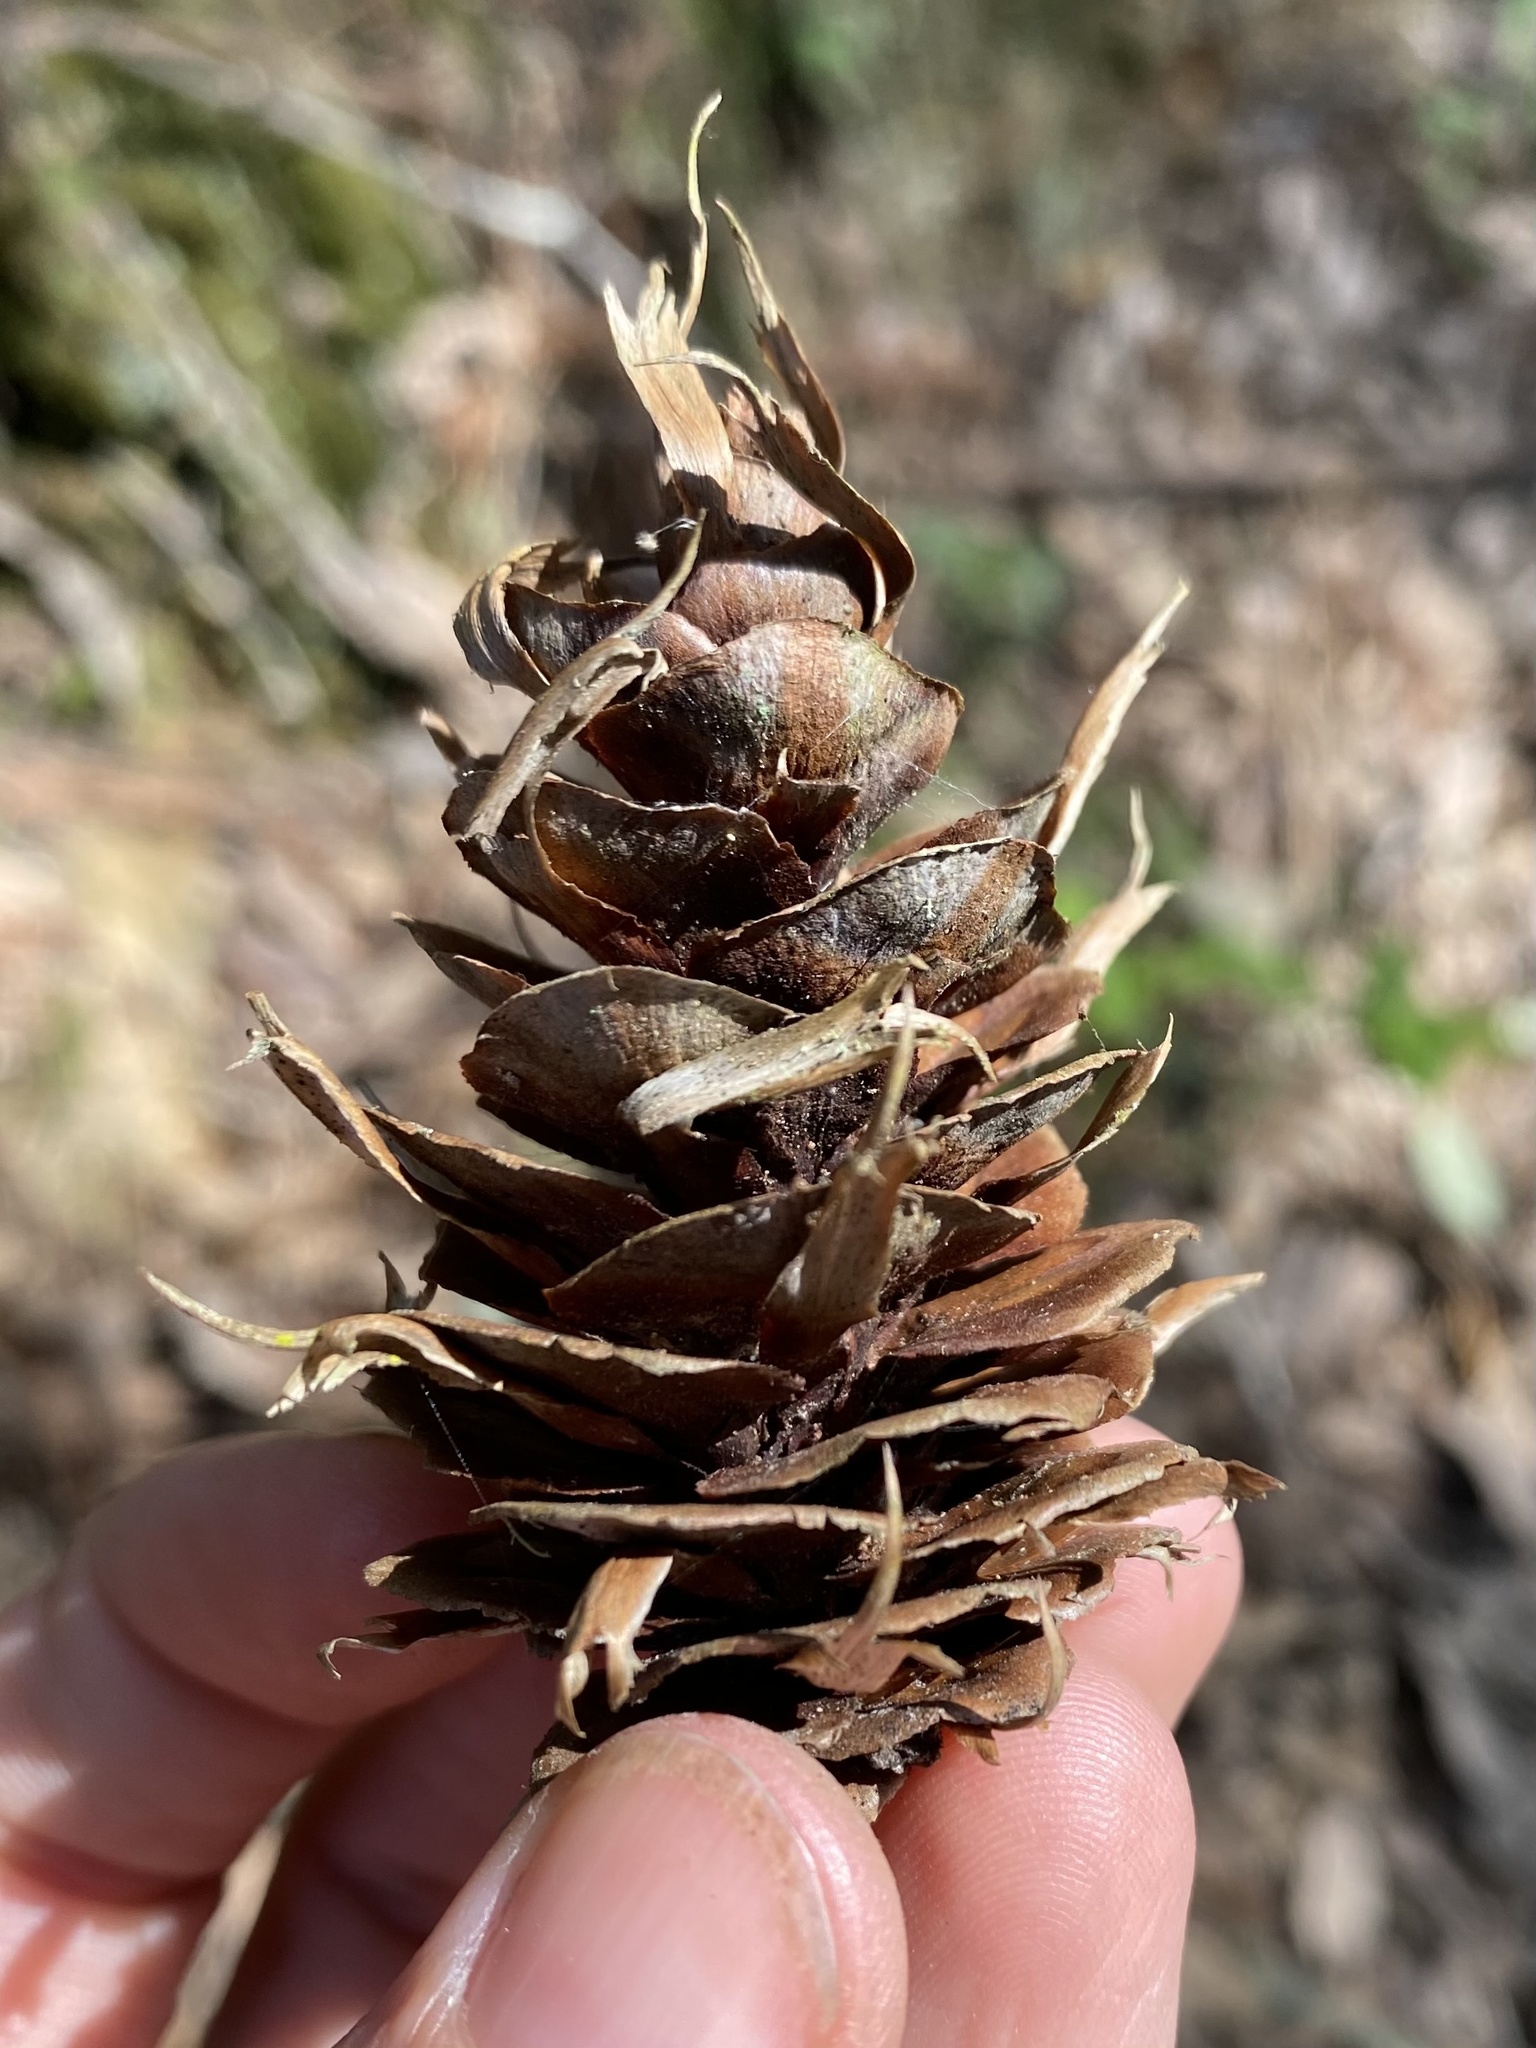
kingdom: Plantae
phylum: Tracheophyta
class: Pinopsida
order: Pinales
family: Pinaceae
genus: Pseudotsuga
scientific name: Pseudotsuga menziesii
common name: Douglas fir
